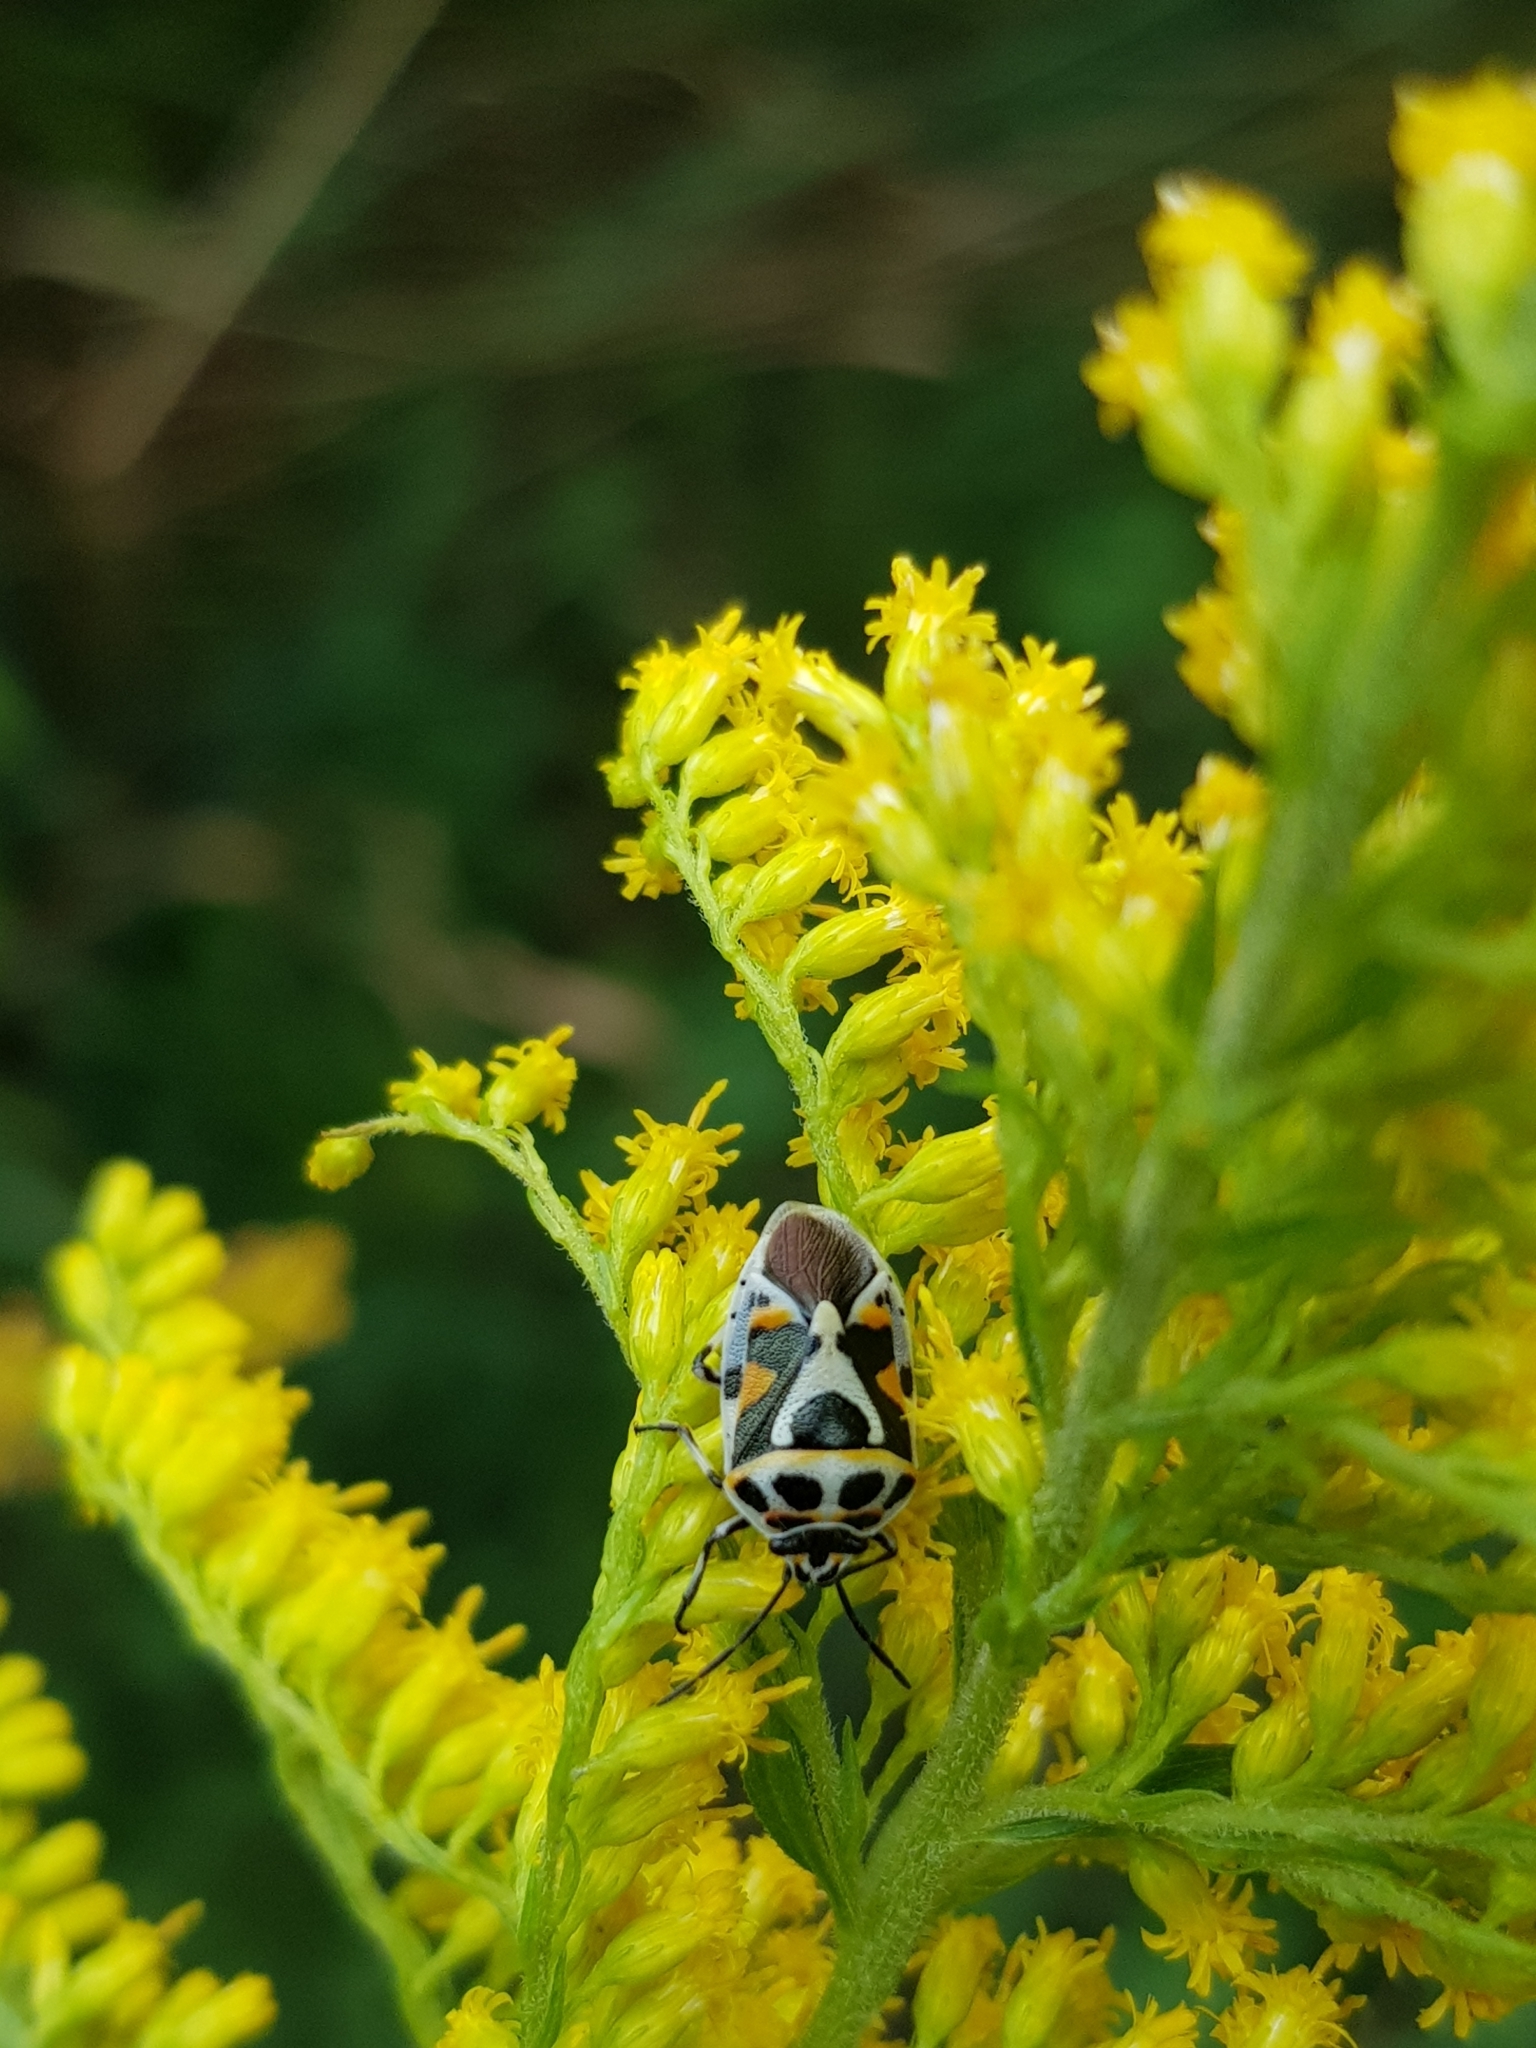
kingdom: Animalia
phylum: Arthropoda
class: Insecta
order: Hemiptera
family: Pentatomidae
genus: Eurydema
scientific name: Eurydema ornata
